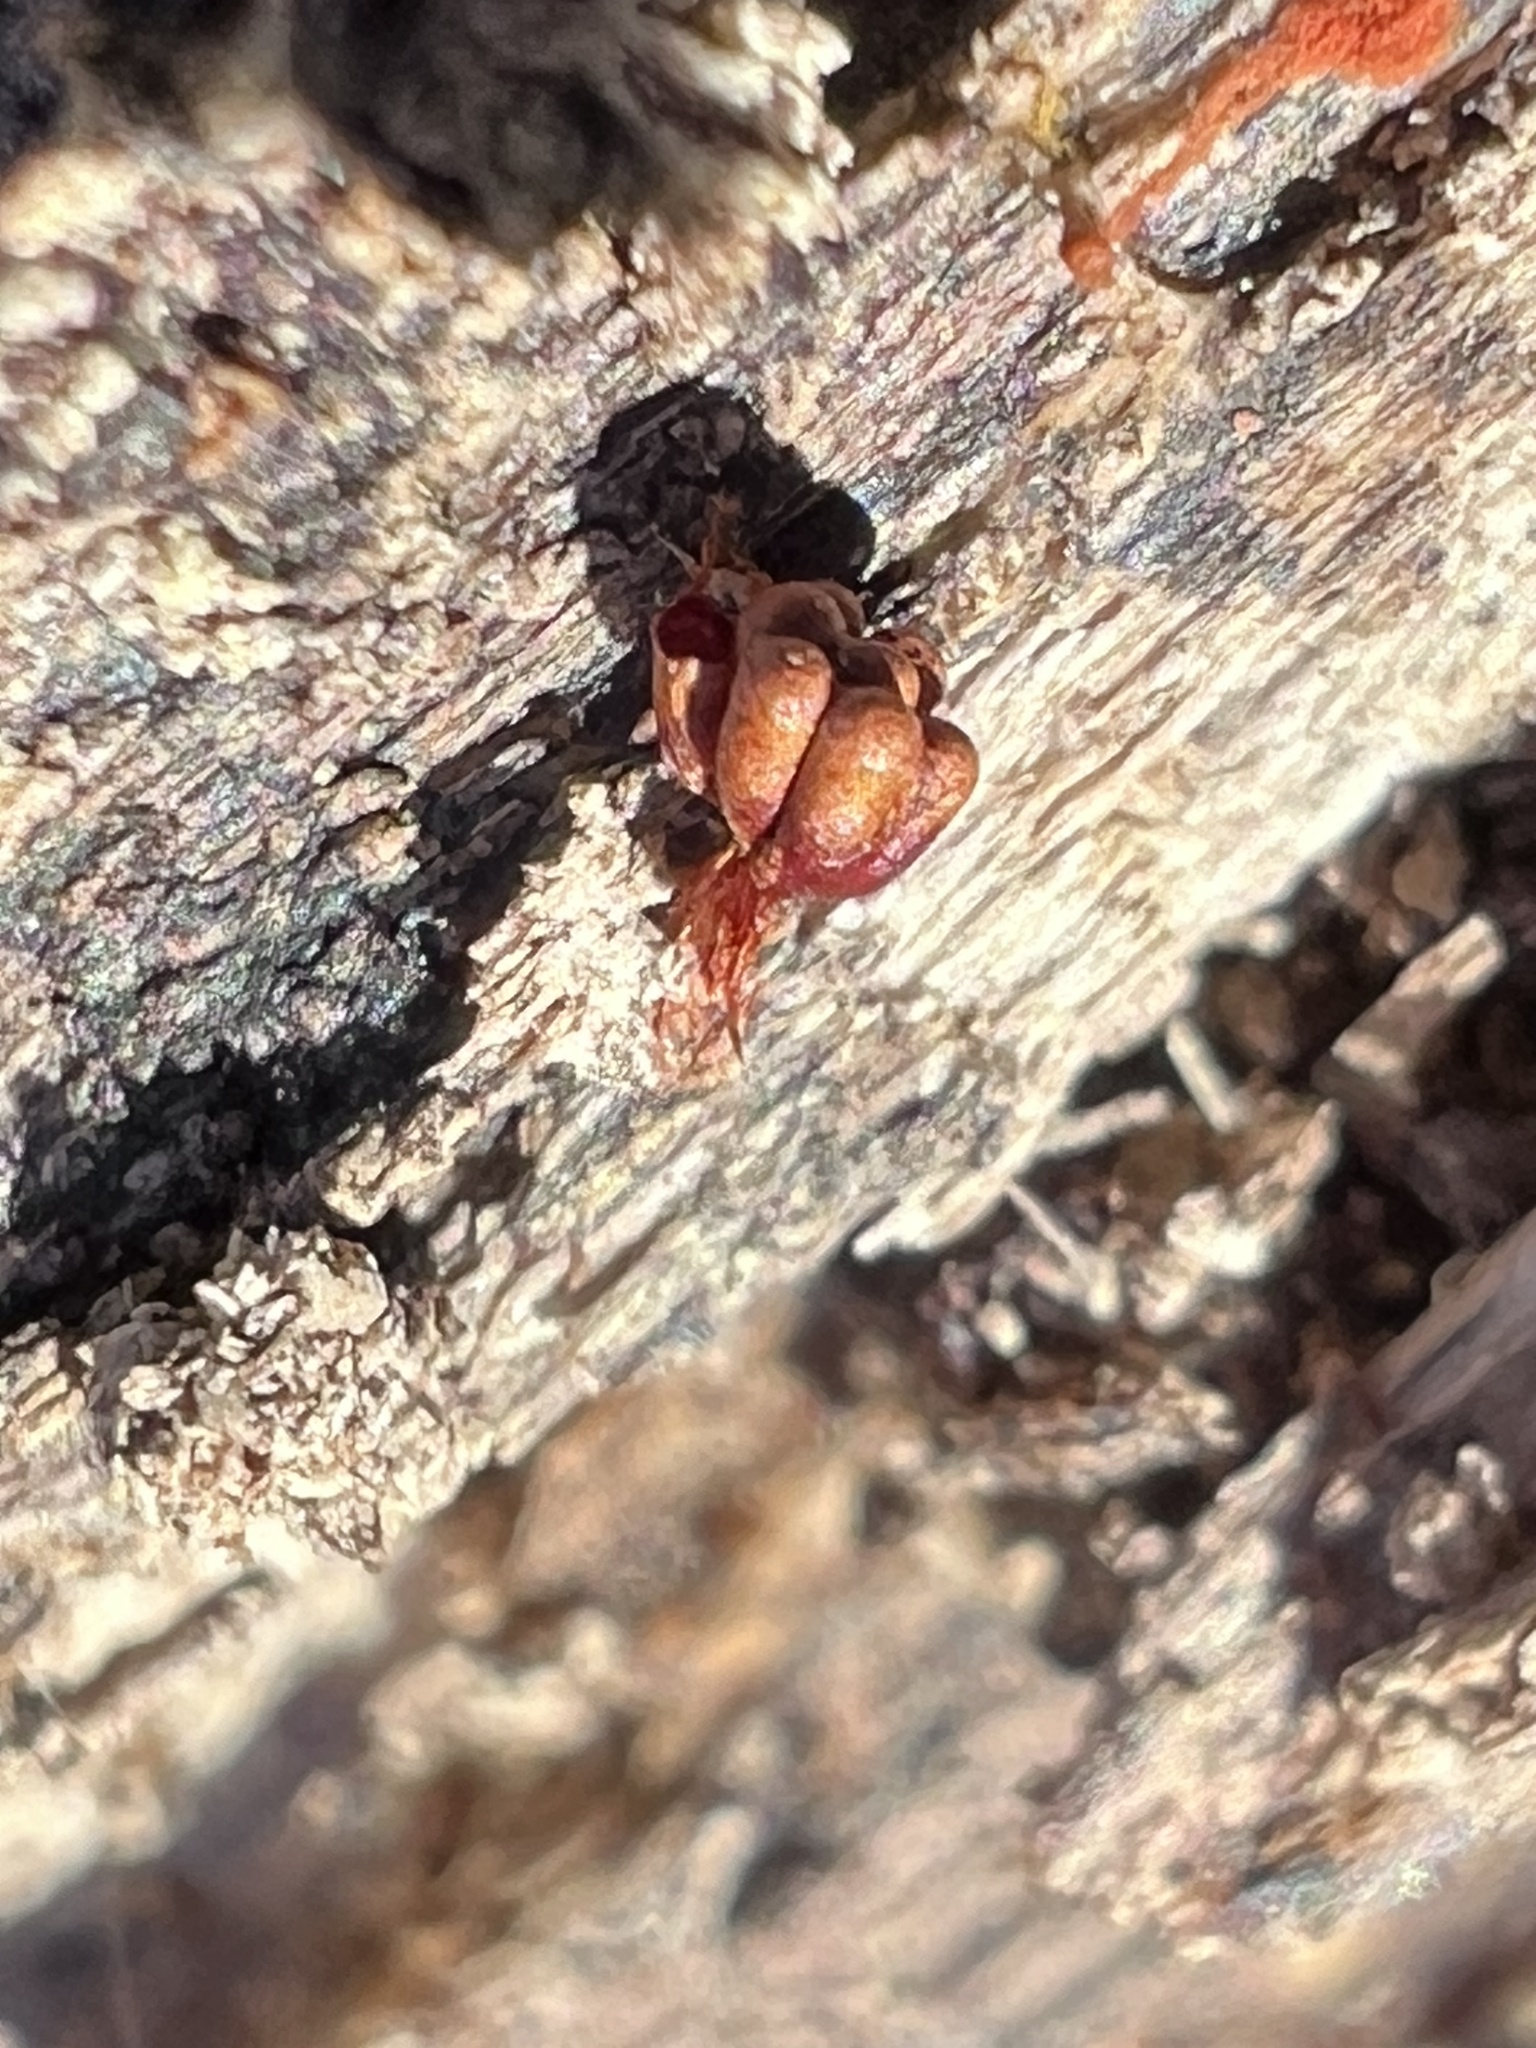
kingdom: Protozoa
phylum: Mycetozoa
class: Myxomycetes
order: Trichiales
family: Trichiaceae
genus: Metatrichia
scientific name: Metatrichia vesparia
